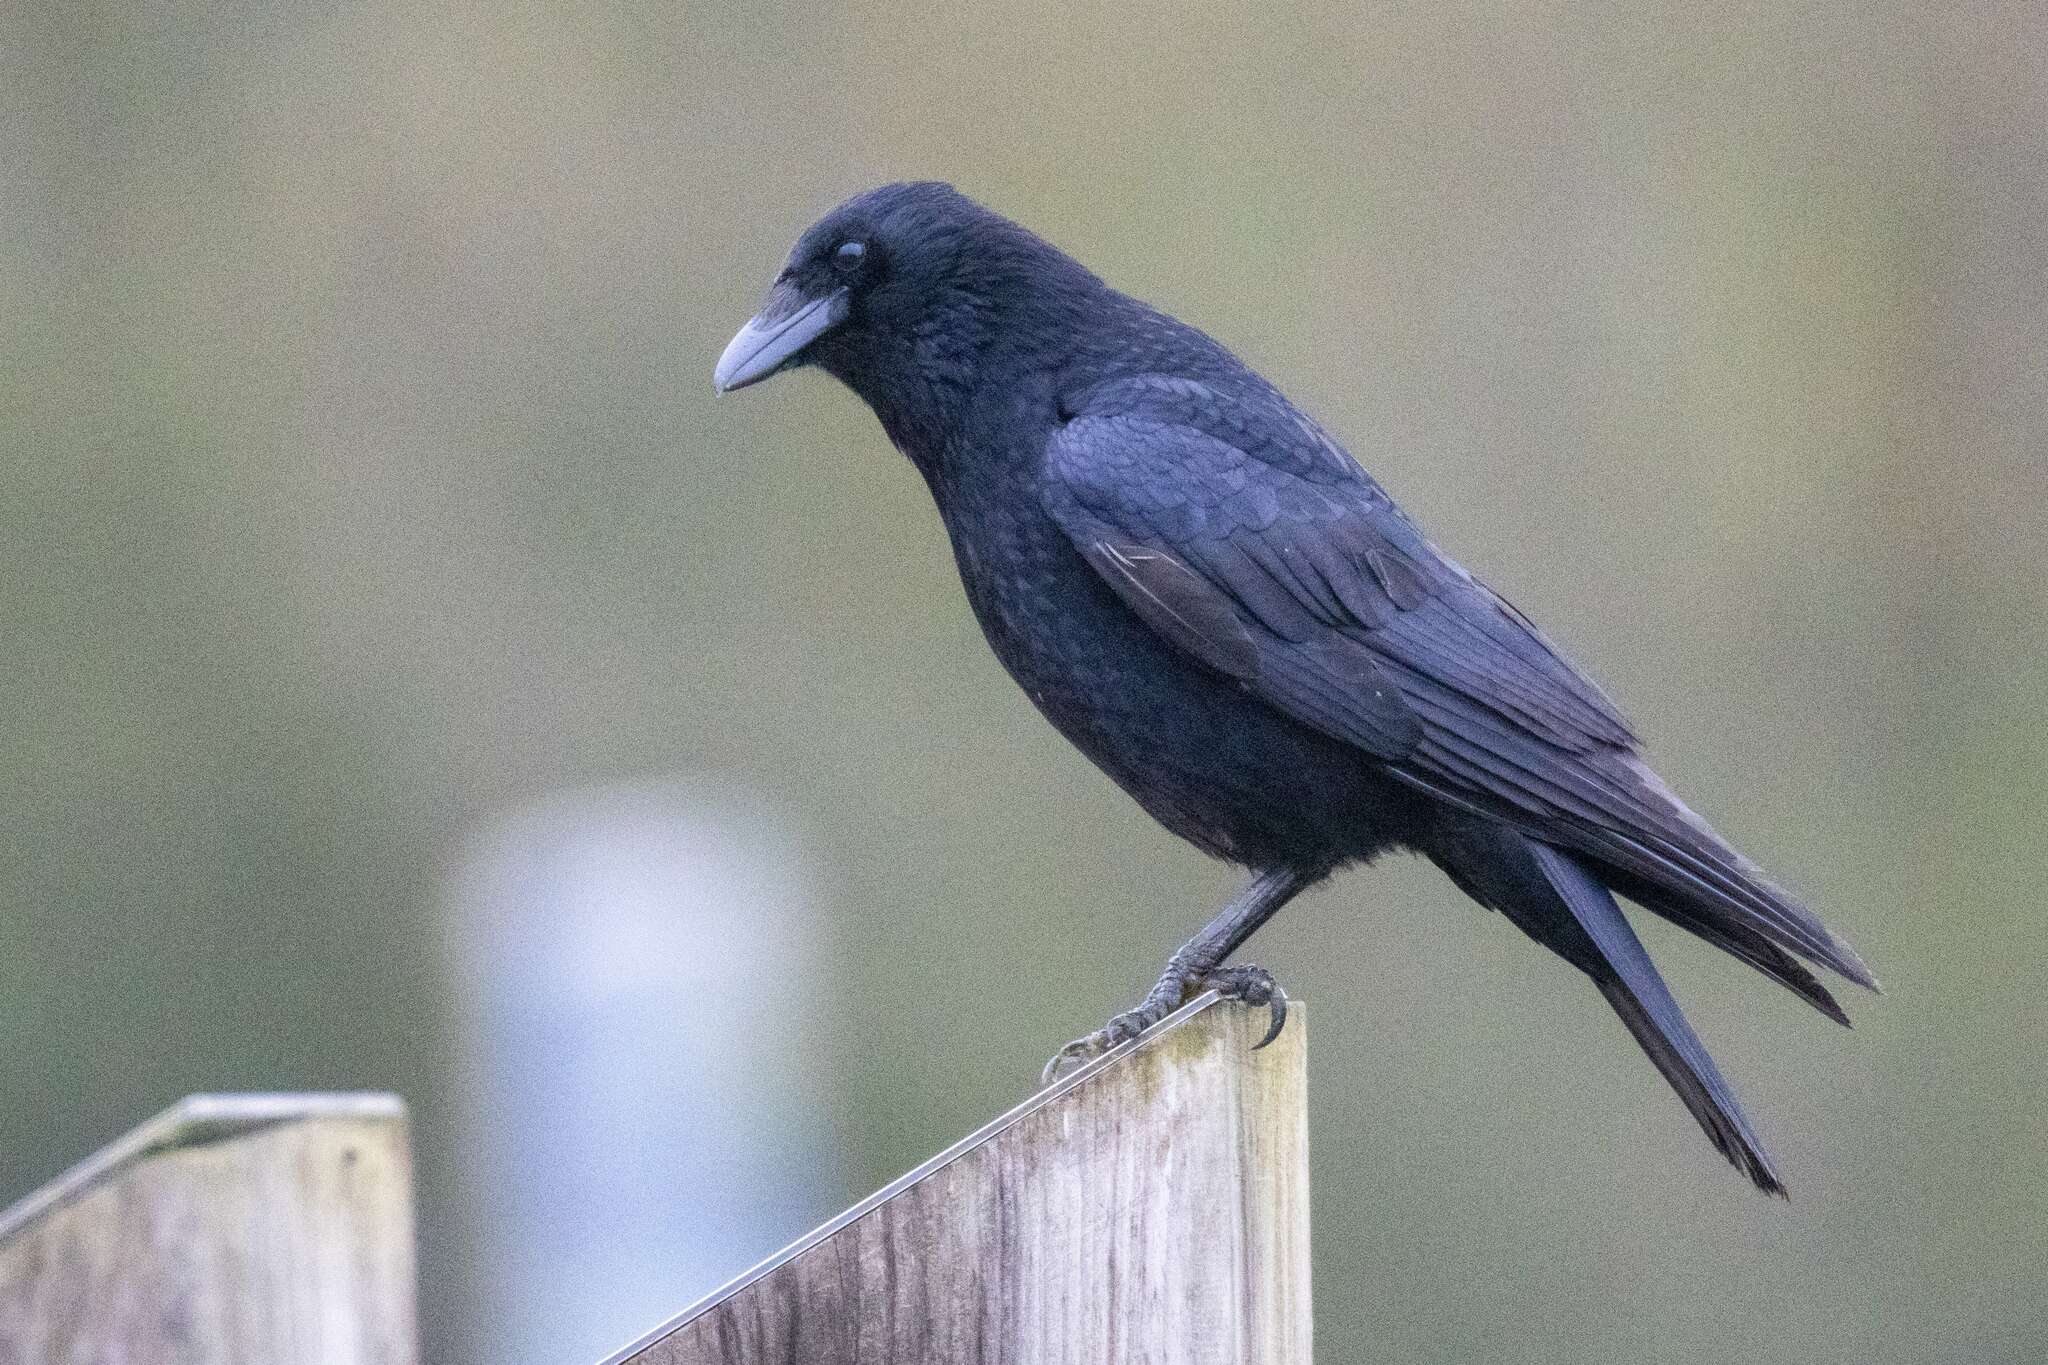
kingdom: Animalia
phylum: Chordata
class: Aves
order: Passeriformes
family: Corvidae
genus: Corvus
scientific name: Corvus corone
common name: Carrion crow
